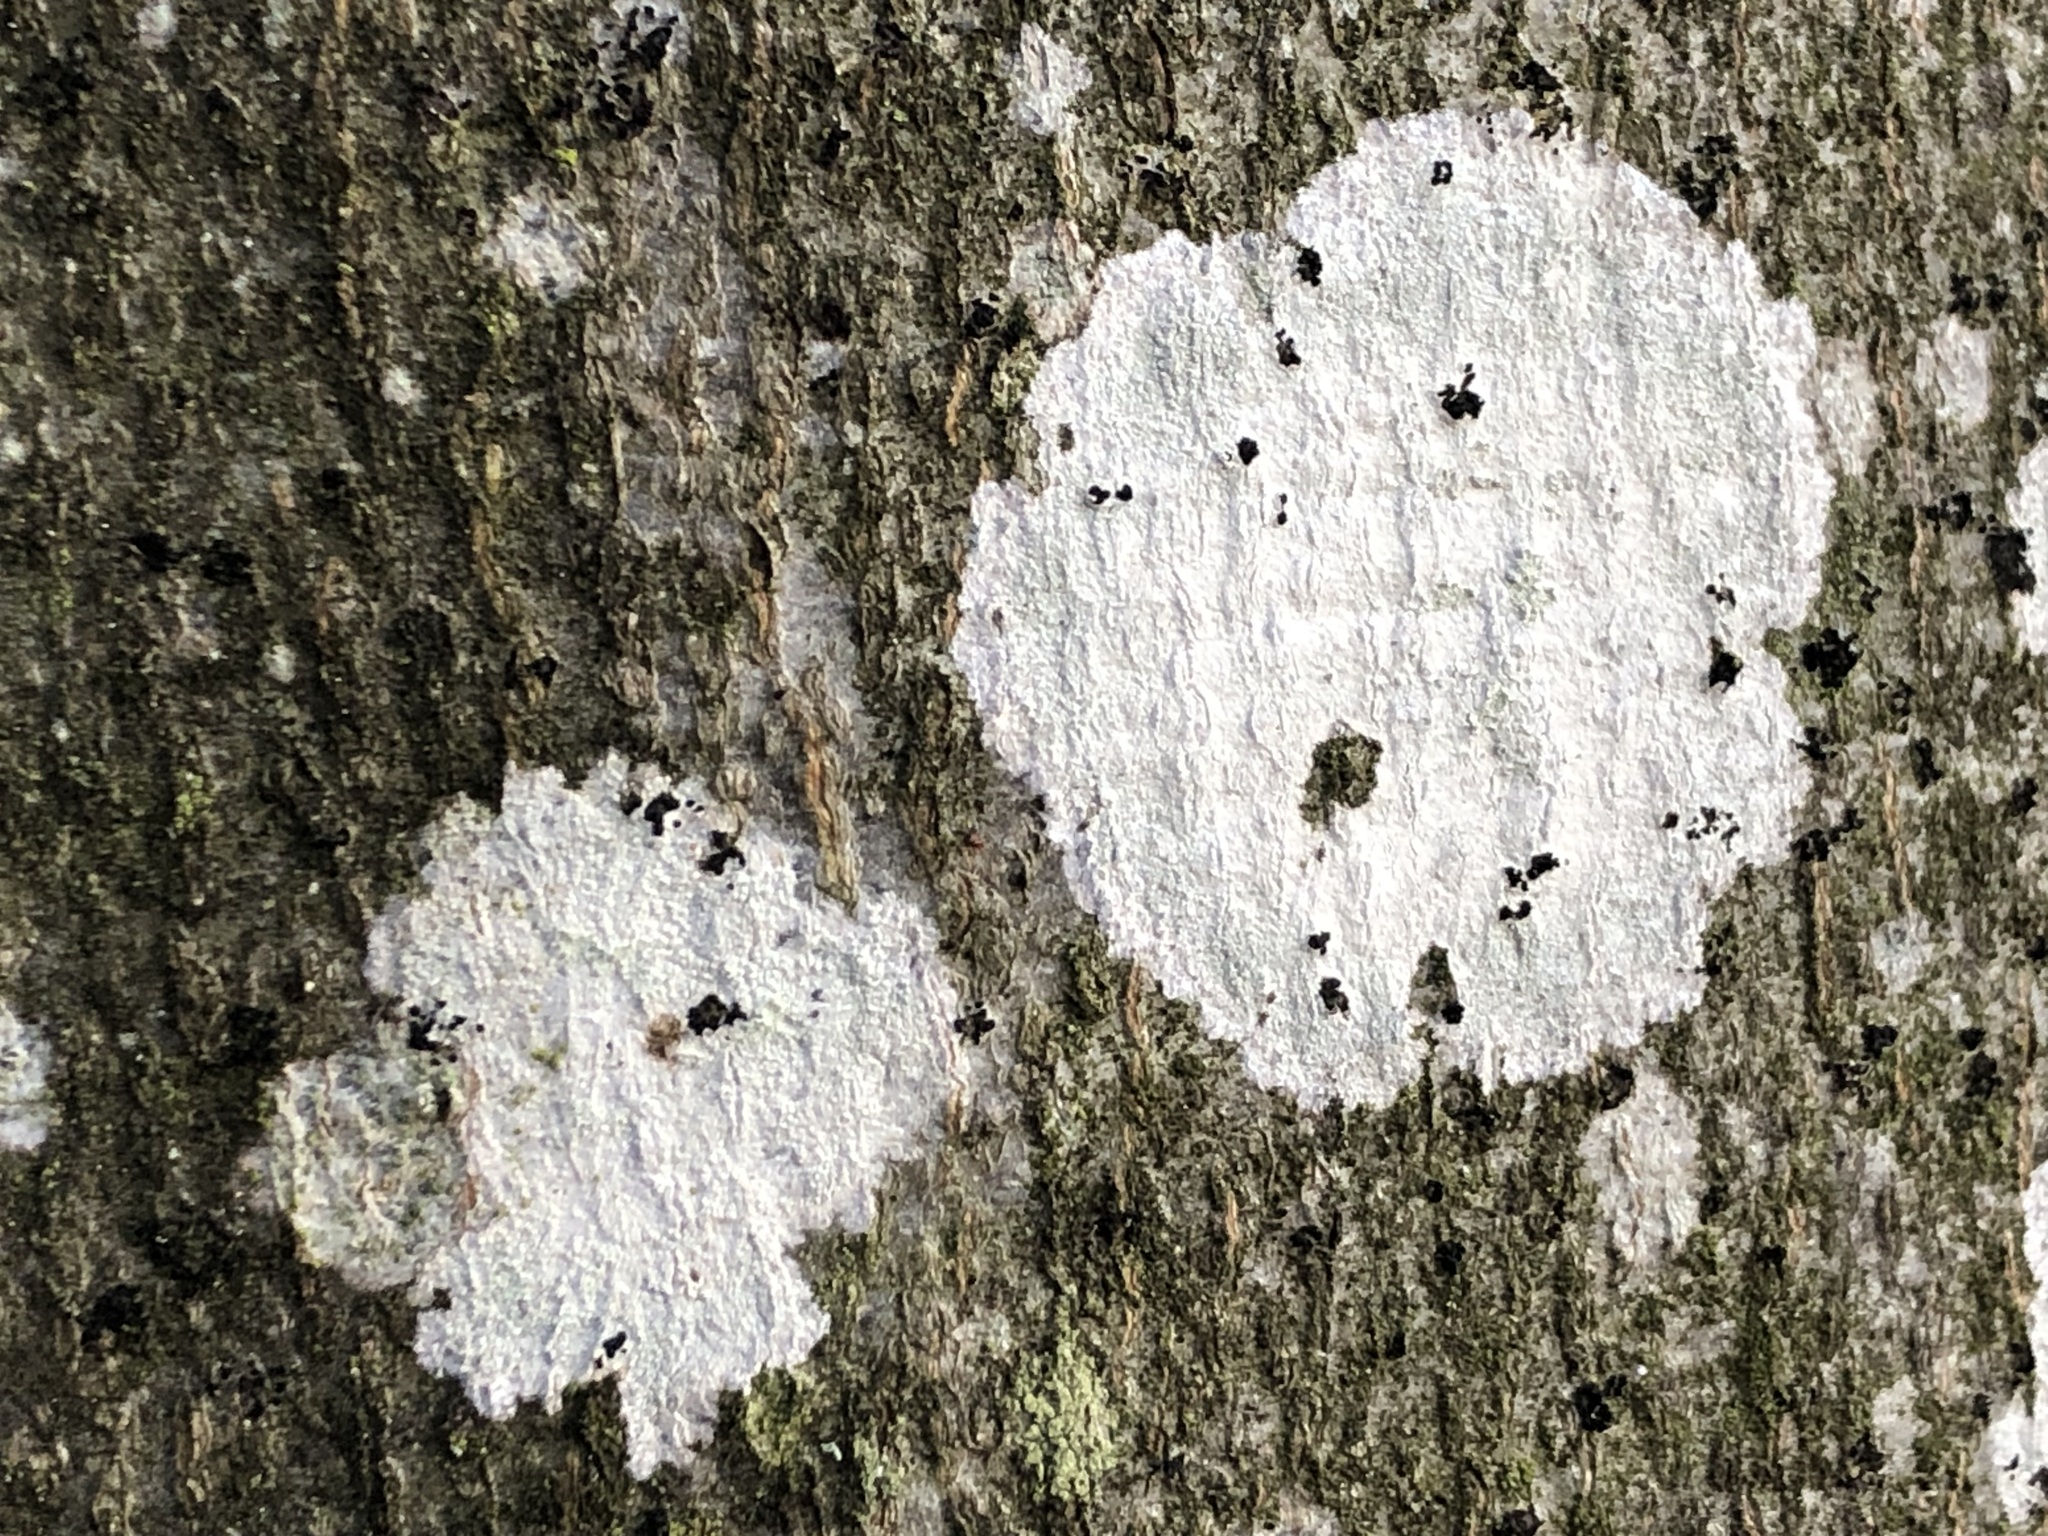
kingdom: Fungi
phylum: Ascomycota
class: Lecanoromycetes
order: Ostropales
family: Phlyctidaceae
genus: Phlyctis
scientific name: Phlyctis argena
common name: Whitewash lichen
